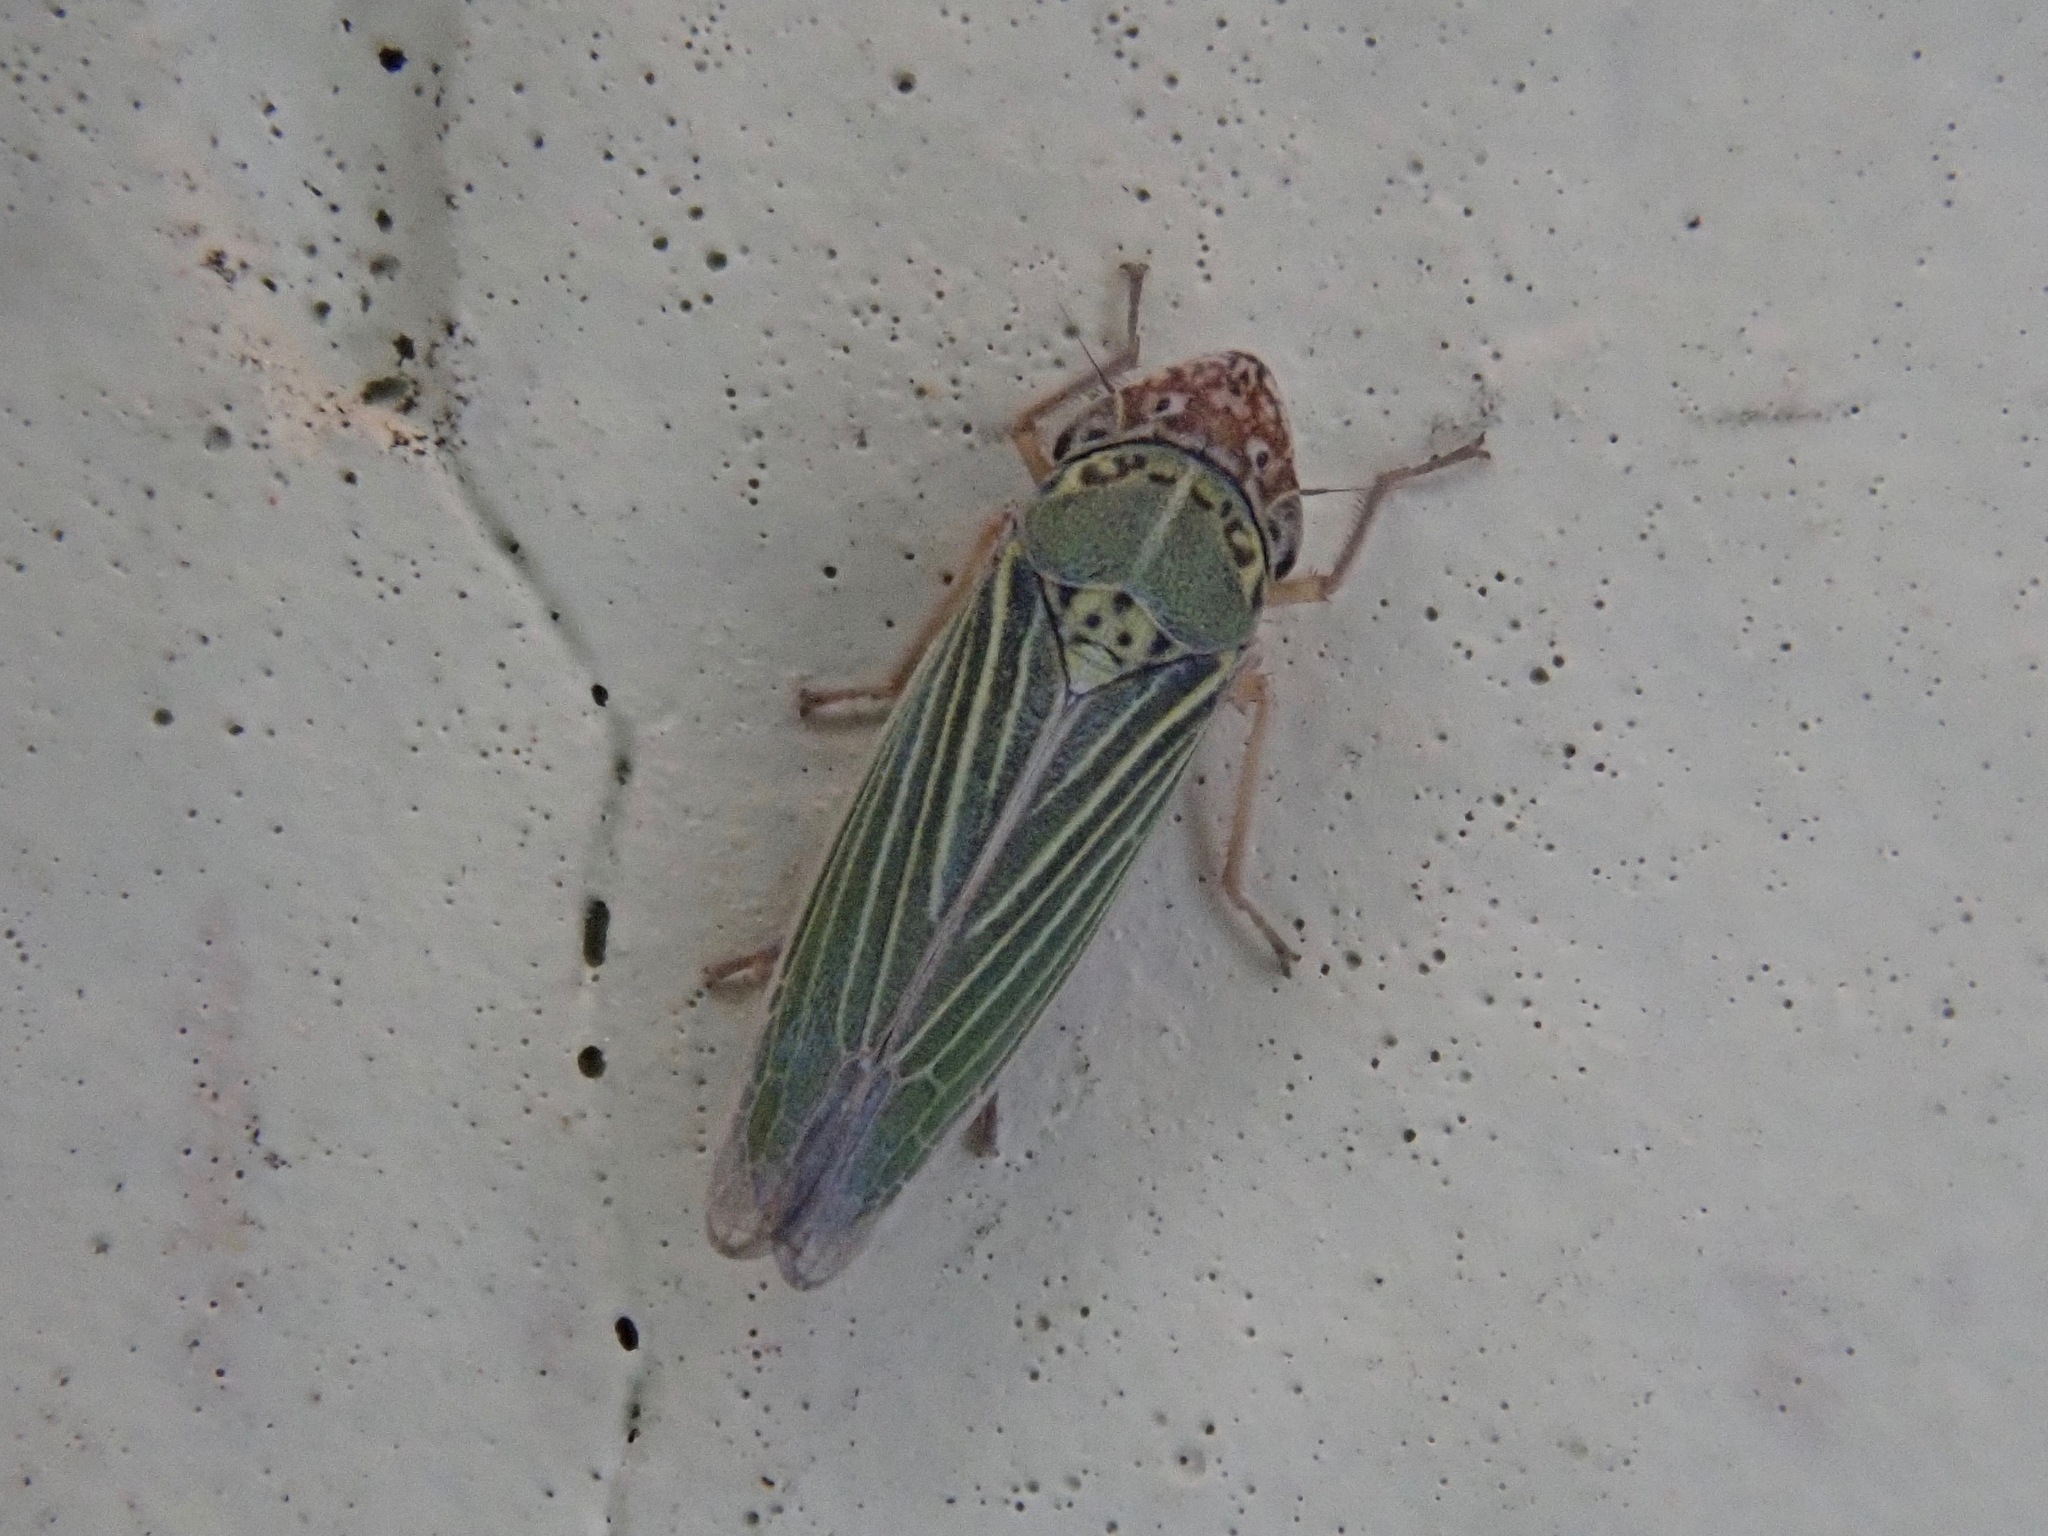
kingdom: Animalia
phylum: Arthropoda
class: Insecta
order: Hemiptera
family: Cicadellidae
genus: Xyphon
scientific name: Xyphon reticulatum
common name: Planthopper
